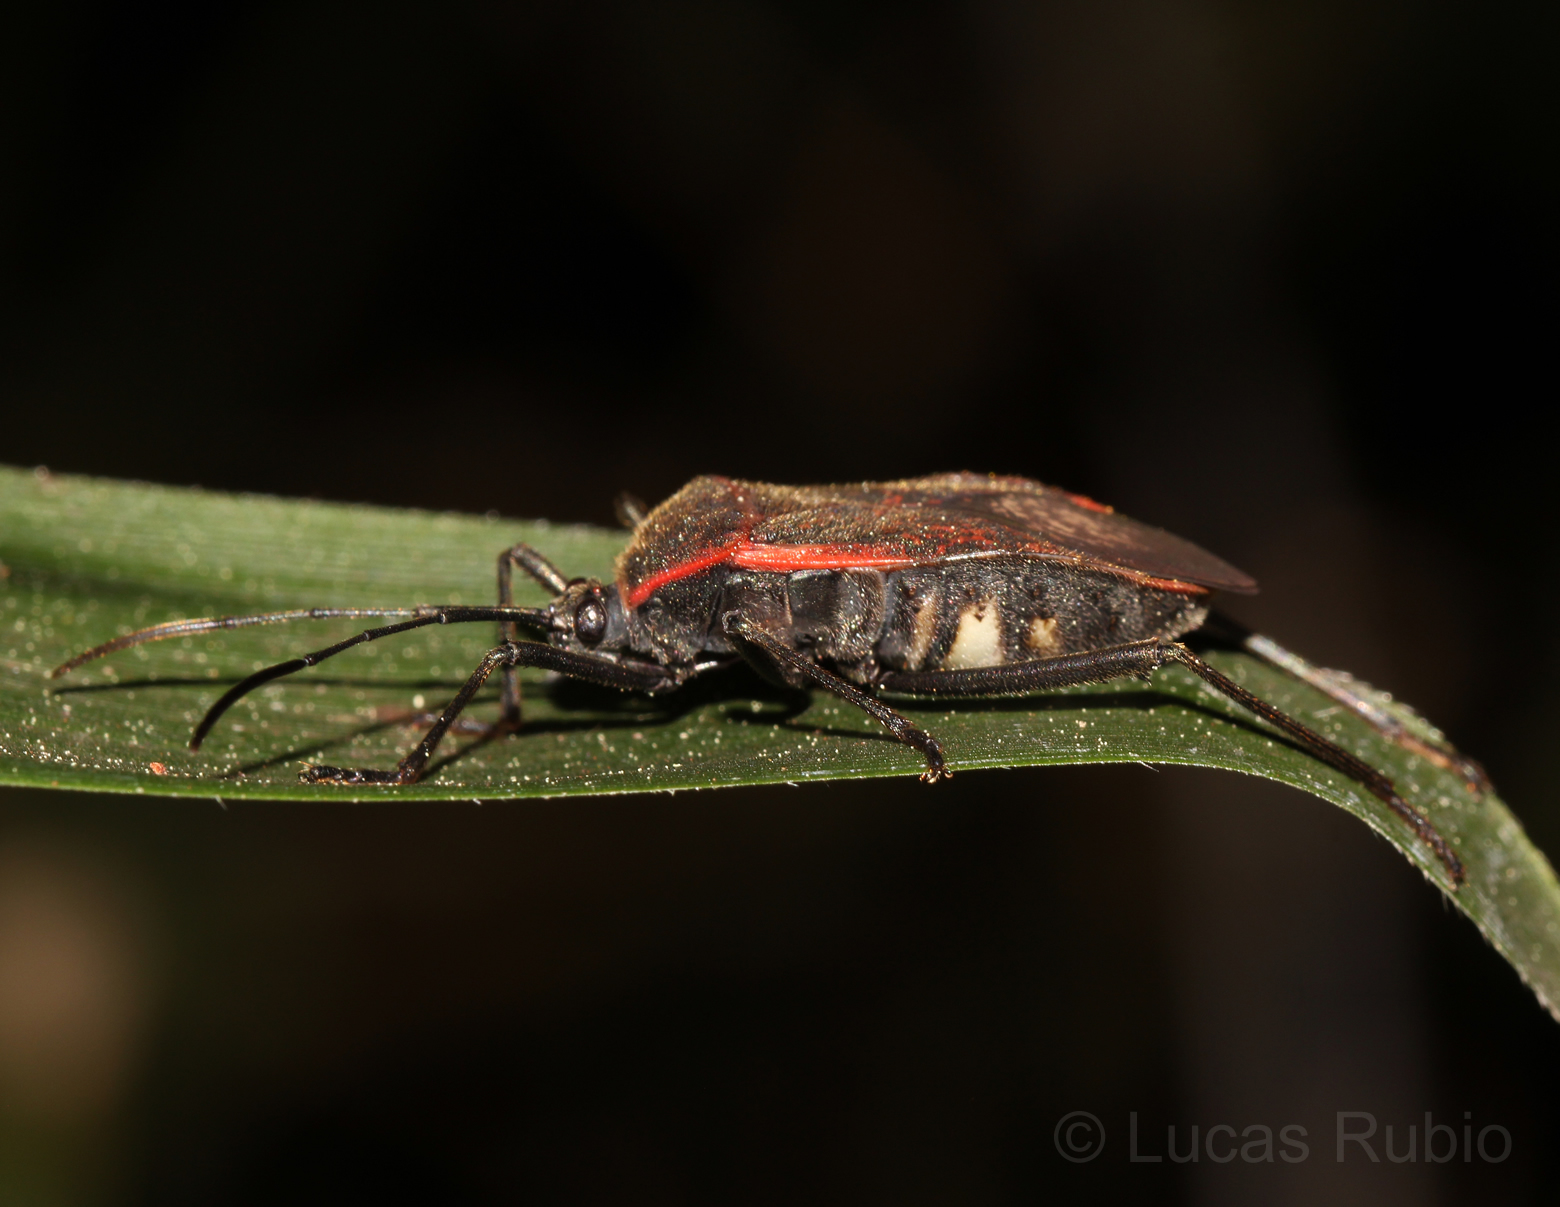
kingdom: Animalia
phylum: Arthropoda
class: Insecta
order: Hemiptera
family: Coreidae
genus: Laminiceps
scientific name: Laminiceps fenestratus
